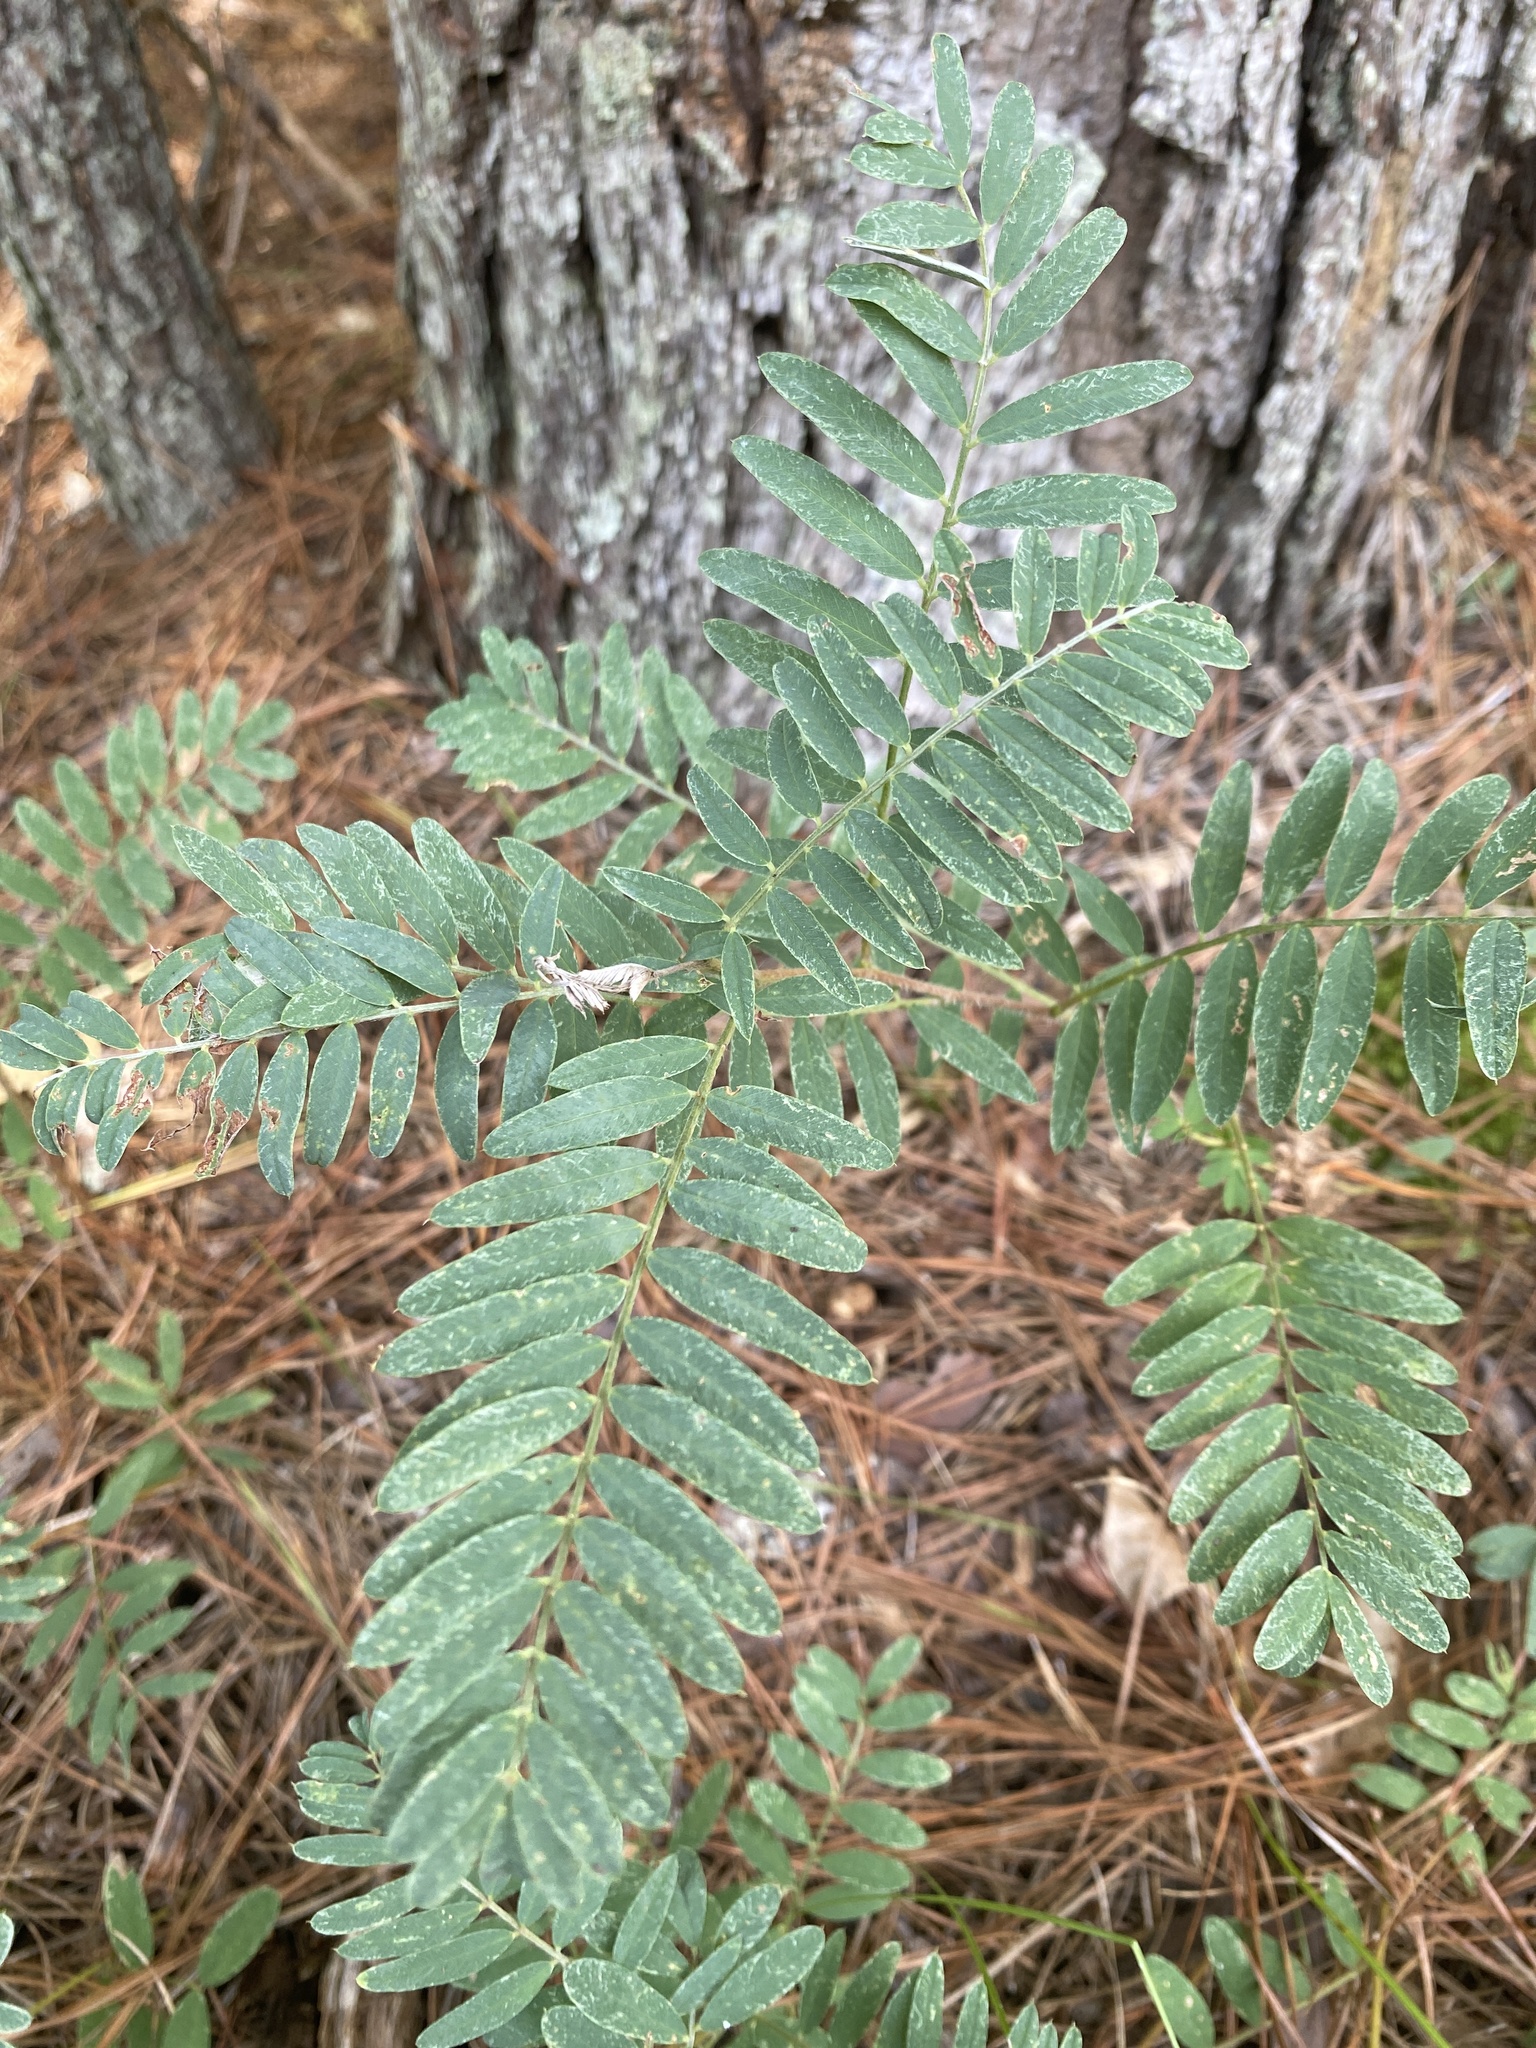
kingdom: Plantae
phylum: Tracheophyta
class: Magnoliopsida
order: Fabales
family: Fabaceae
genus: Tephrosia
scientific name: Tephrosia virginiana
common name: Rabbit-pea
